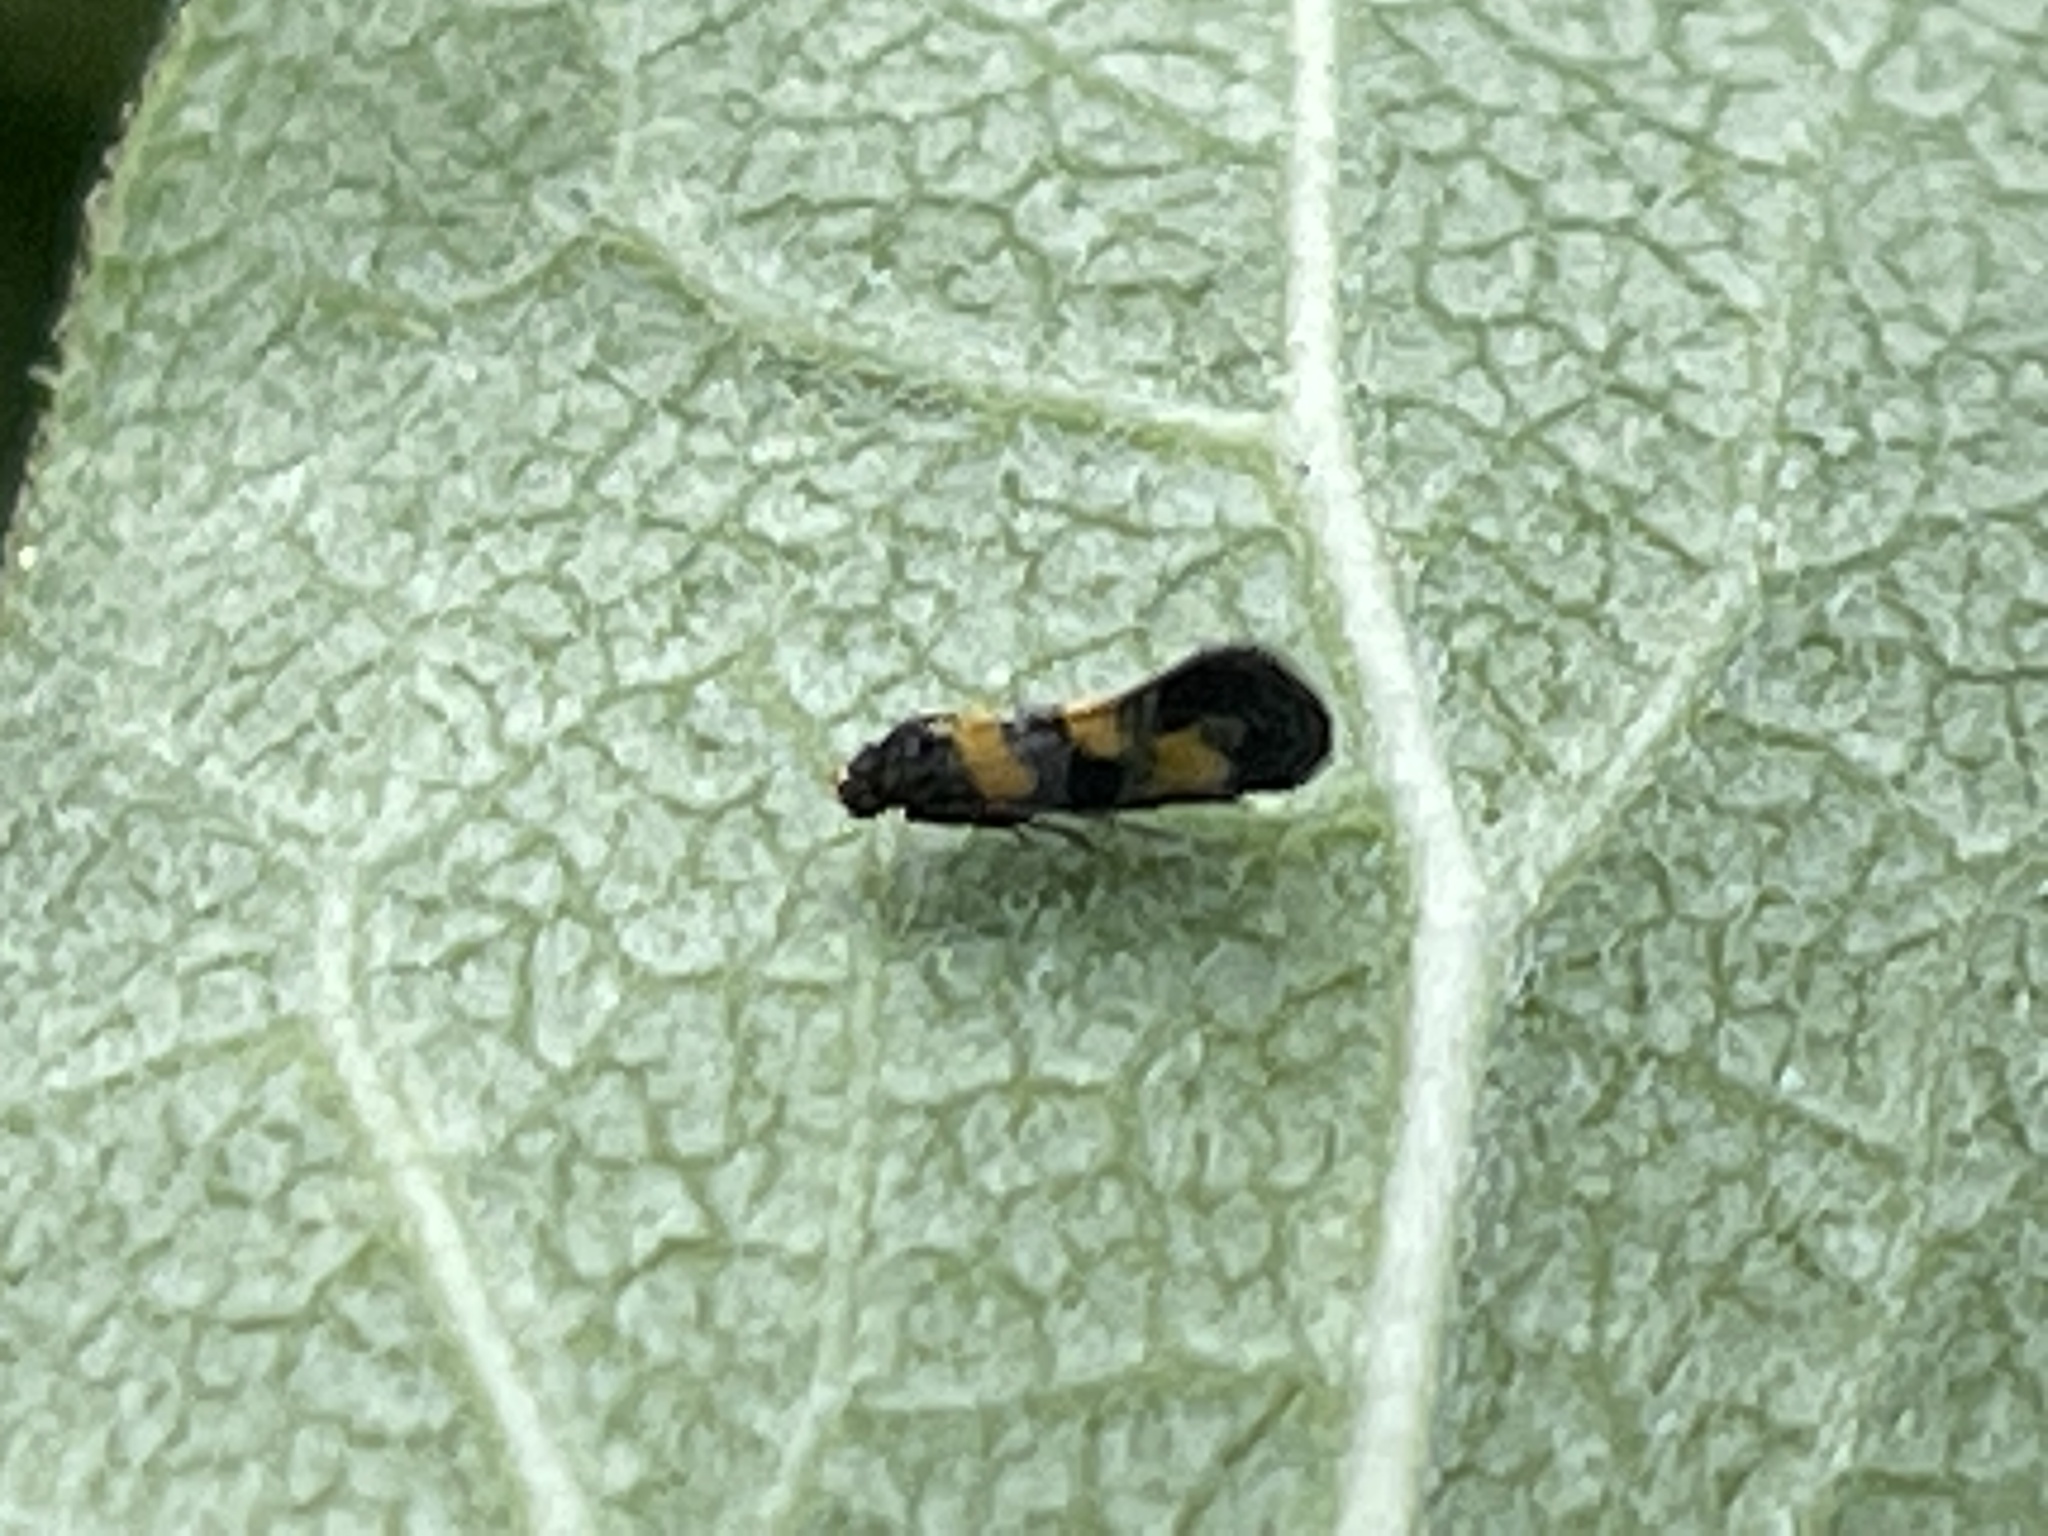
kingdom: Animalia
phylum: Arthropoda
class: Insecta
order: Lepidoptera
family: Gelechiidae
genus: Chrysoesthia
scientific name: Chrysoesthia sexguttella
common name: Moth
